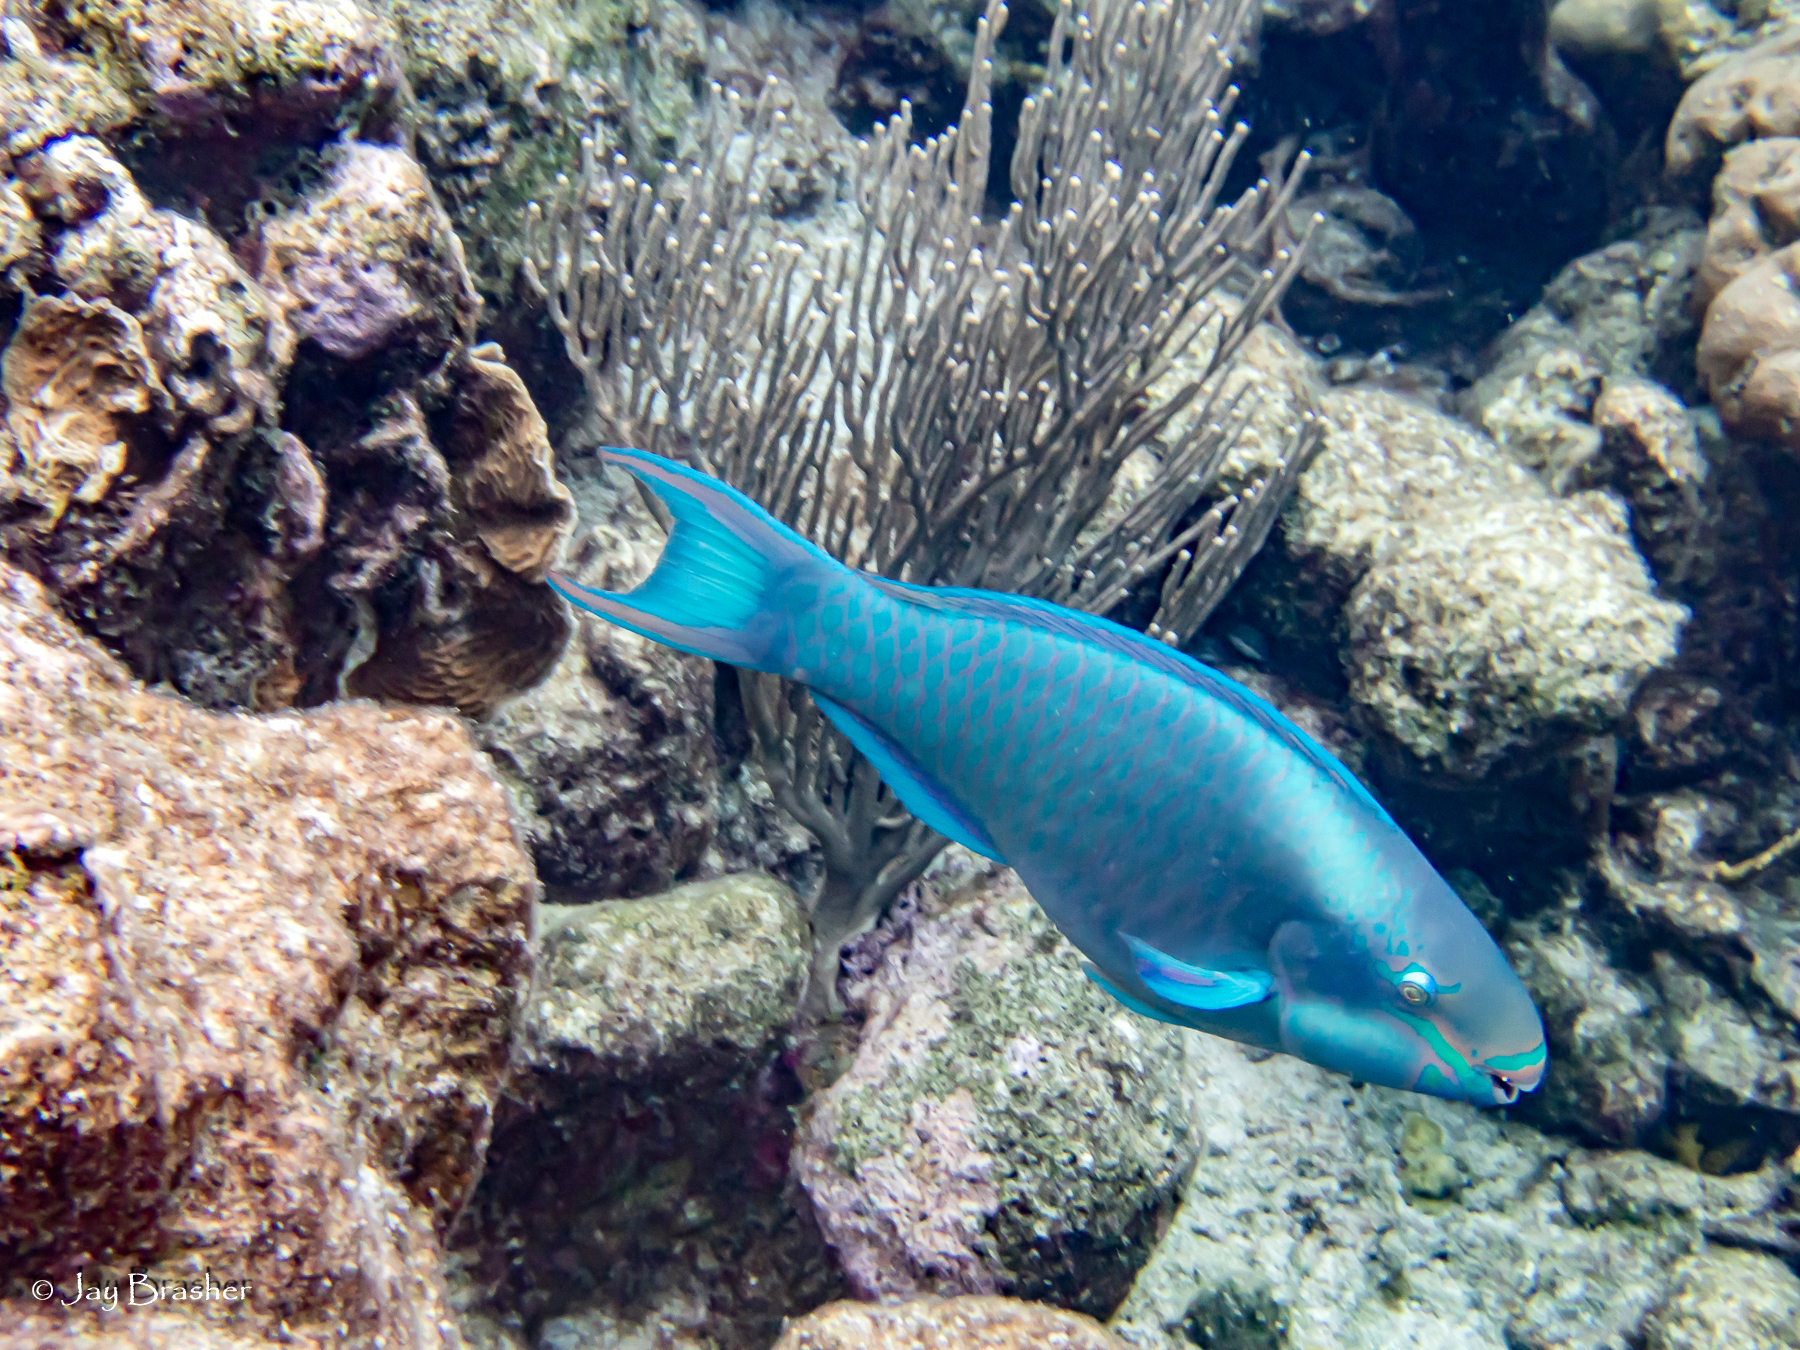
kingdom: Animalia
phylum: Chordata
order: Perciformes
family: Scaridae
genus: Scarus
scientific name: Scarus vetula
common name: Queen parrotfish
